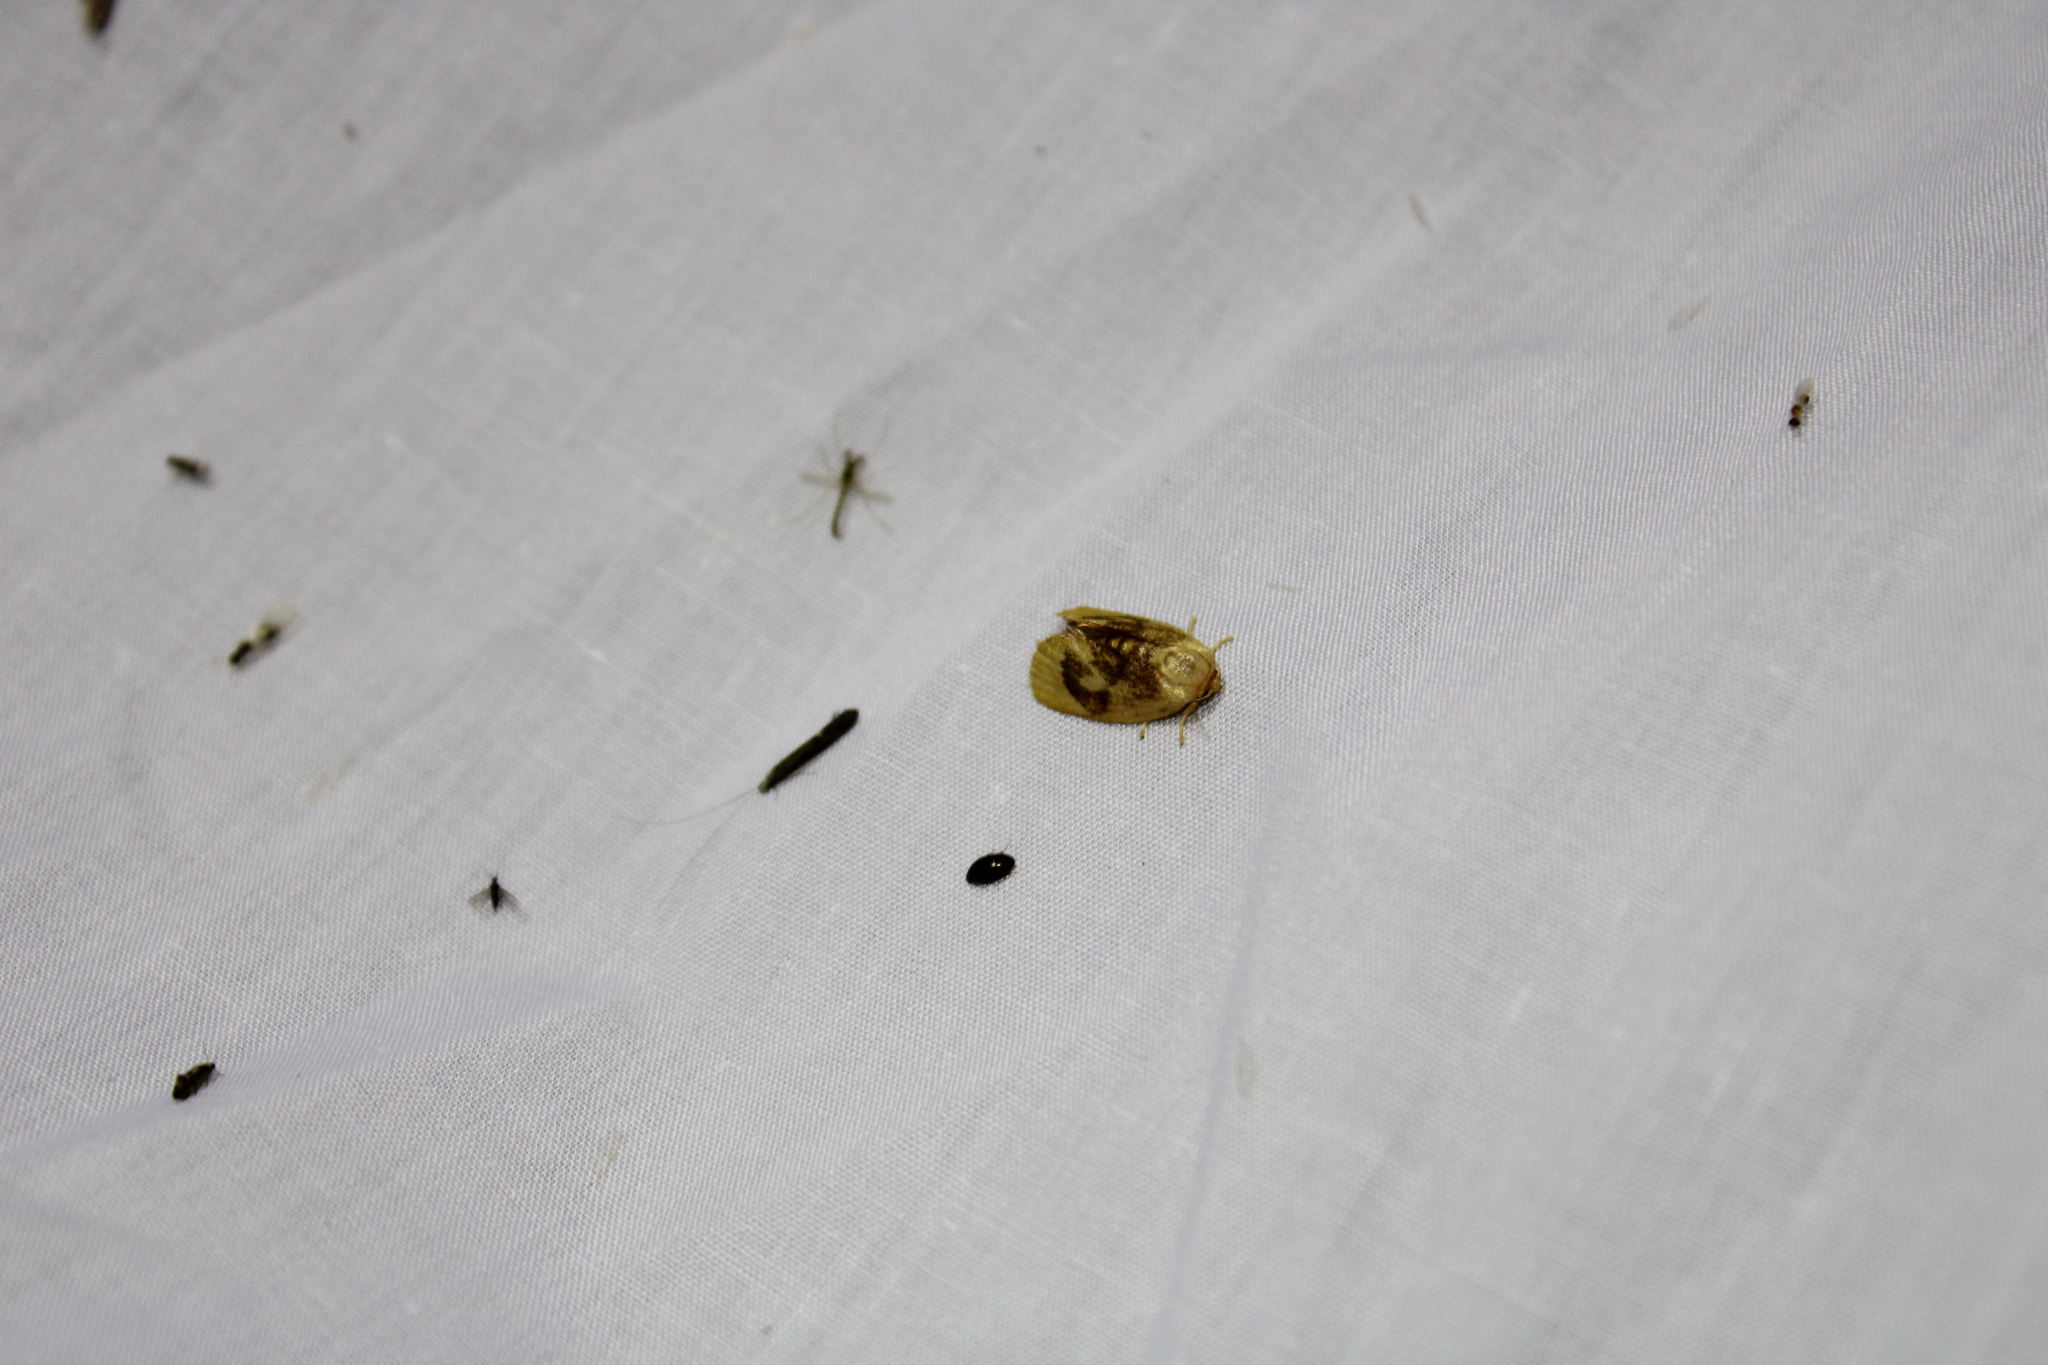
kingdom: Animalia
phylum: Arthropoda
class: Insecta
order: Lepidoptera
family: Limacodidae
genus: Tortricidia
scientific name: Tortricidia flexuosa
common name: Abbreviated button slug moth
